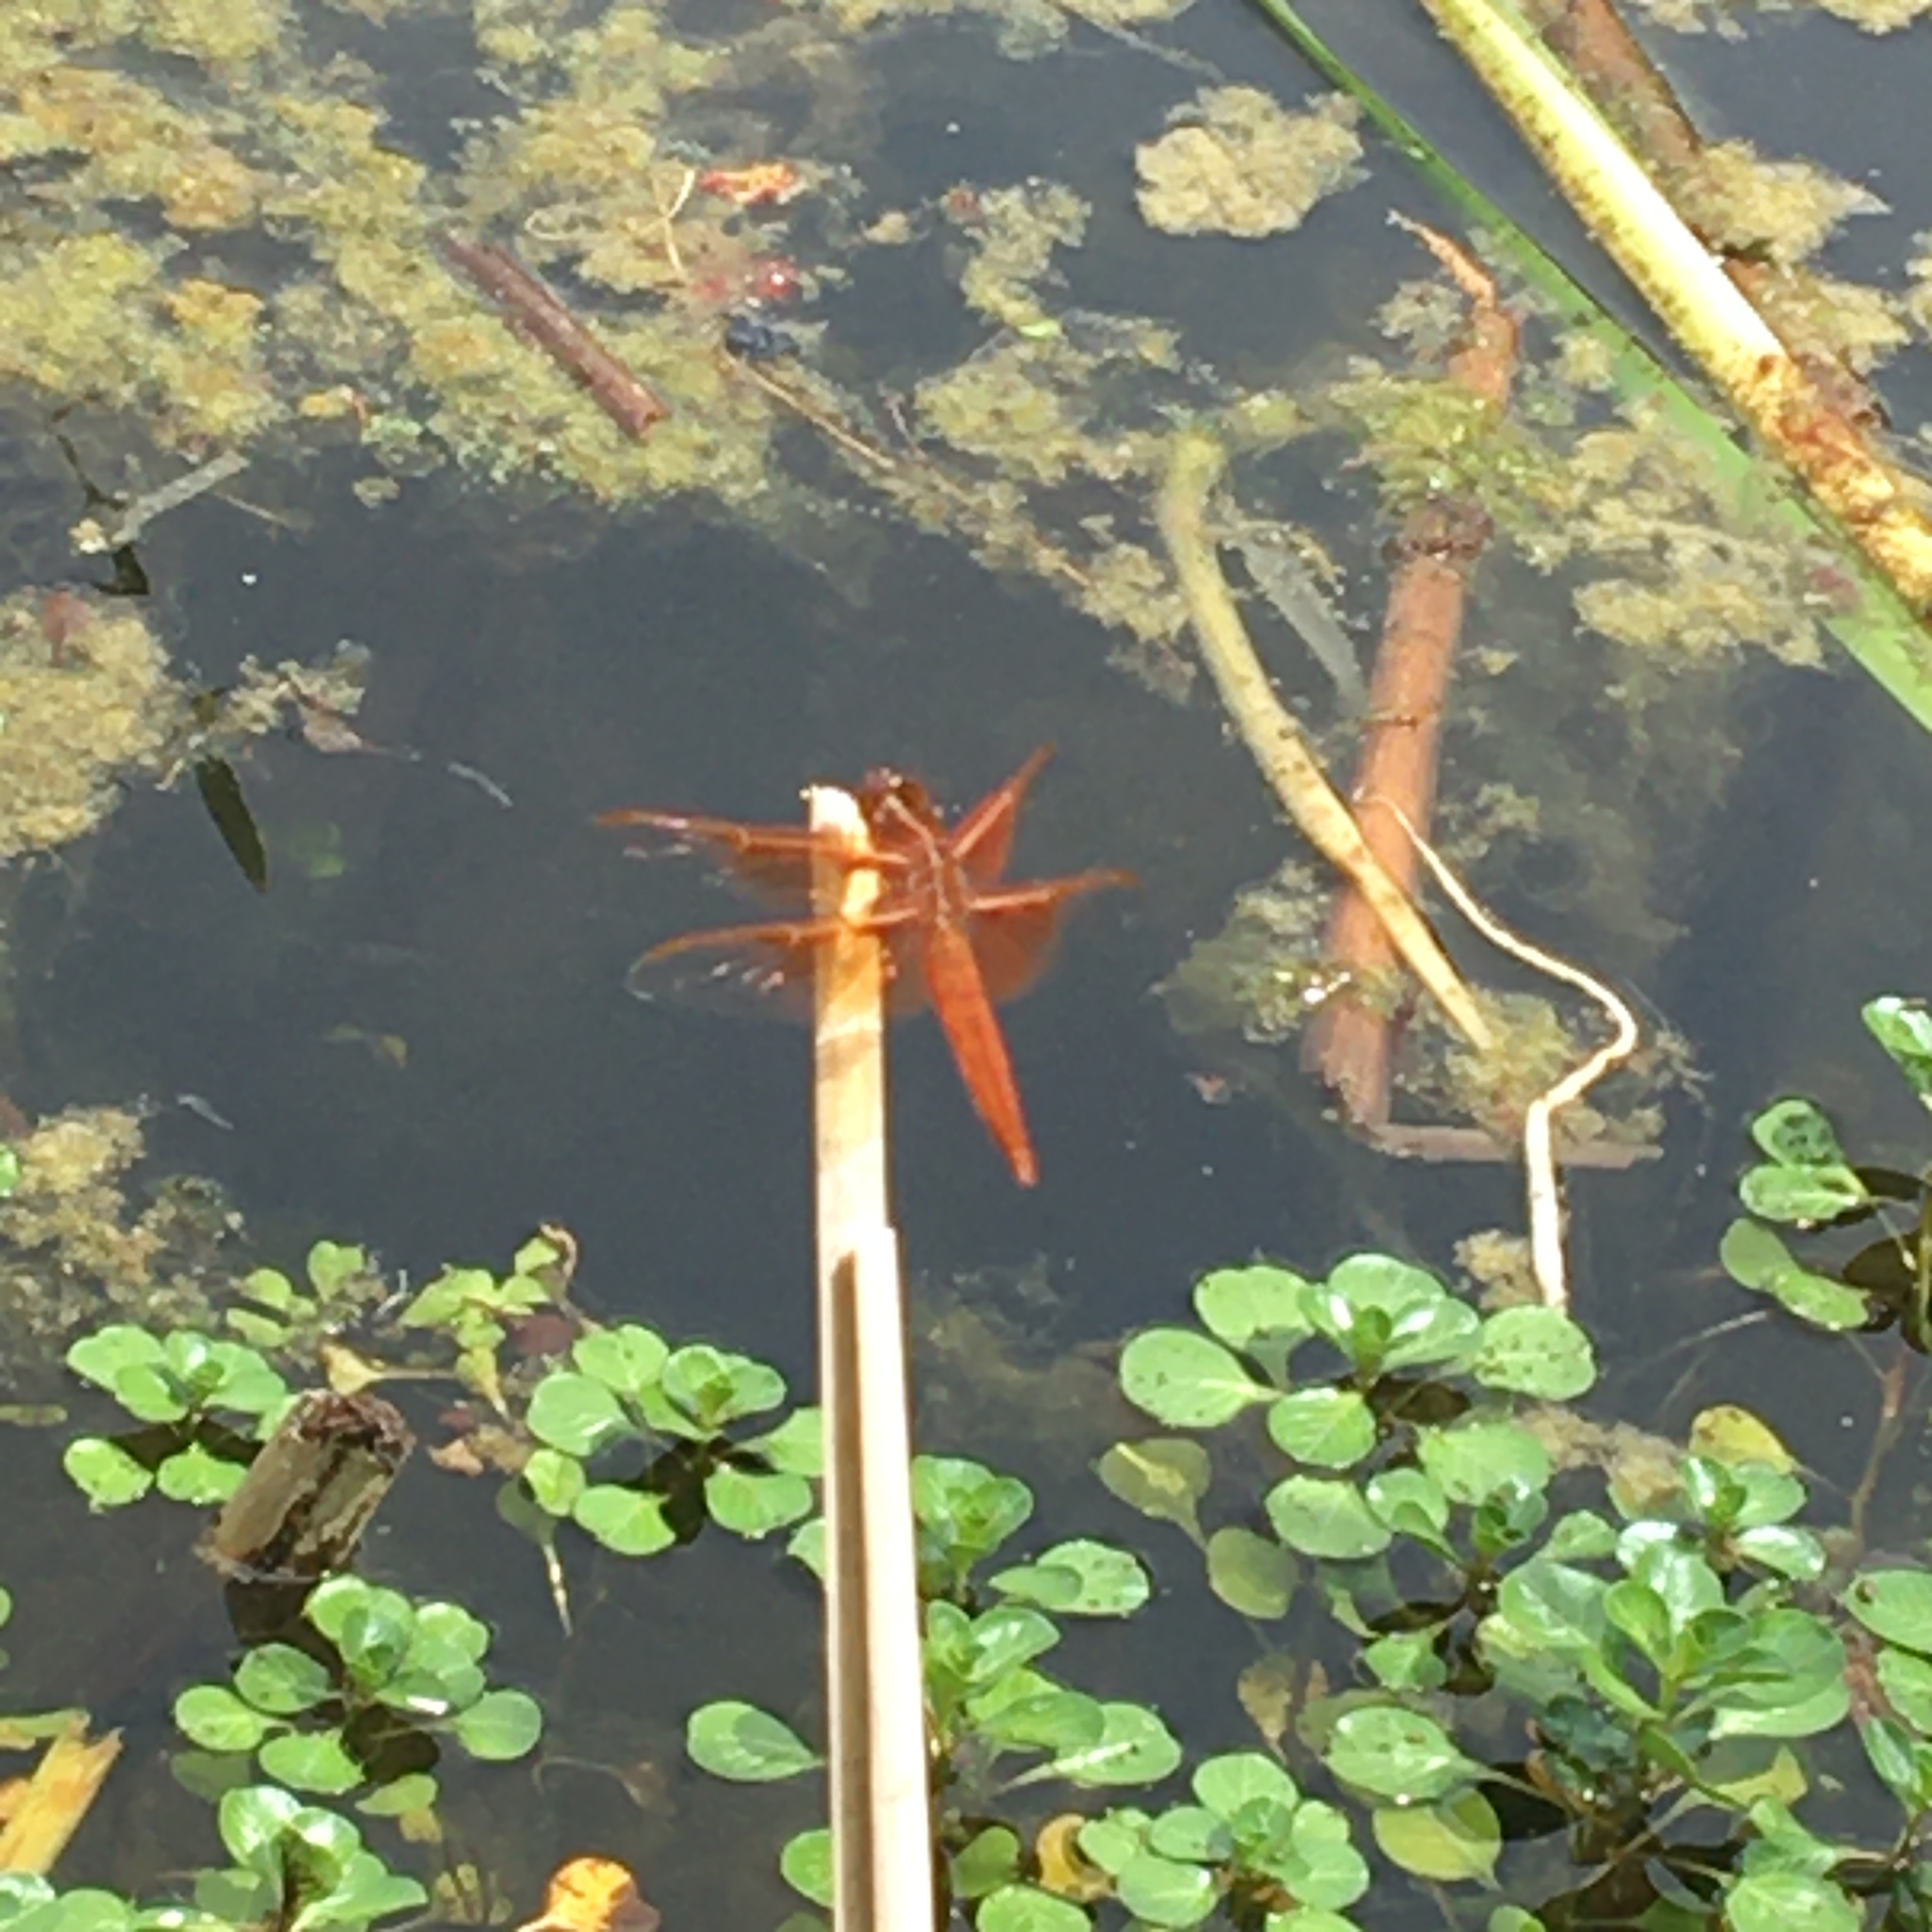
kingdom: Animalia
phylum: Arthropoda
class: Insecta
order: Odonata
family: Libellulidae
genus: Libellula
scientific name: Libellula saturata
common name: Flame skimmer
